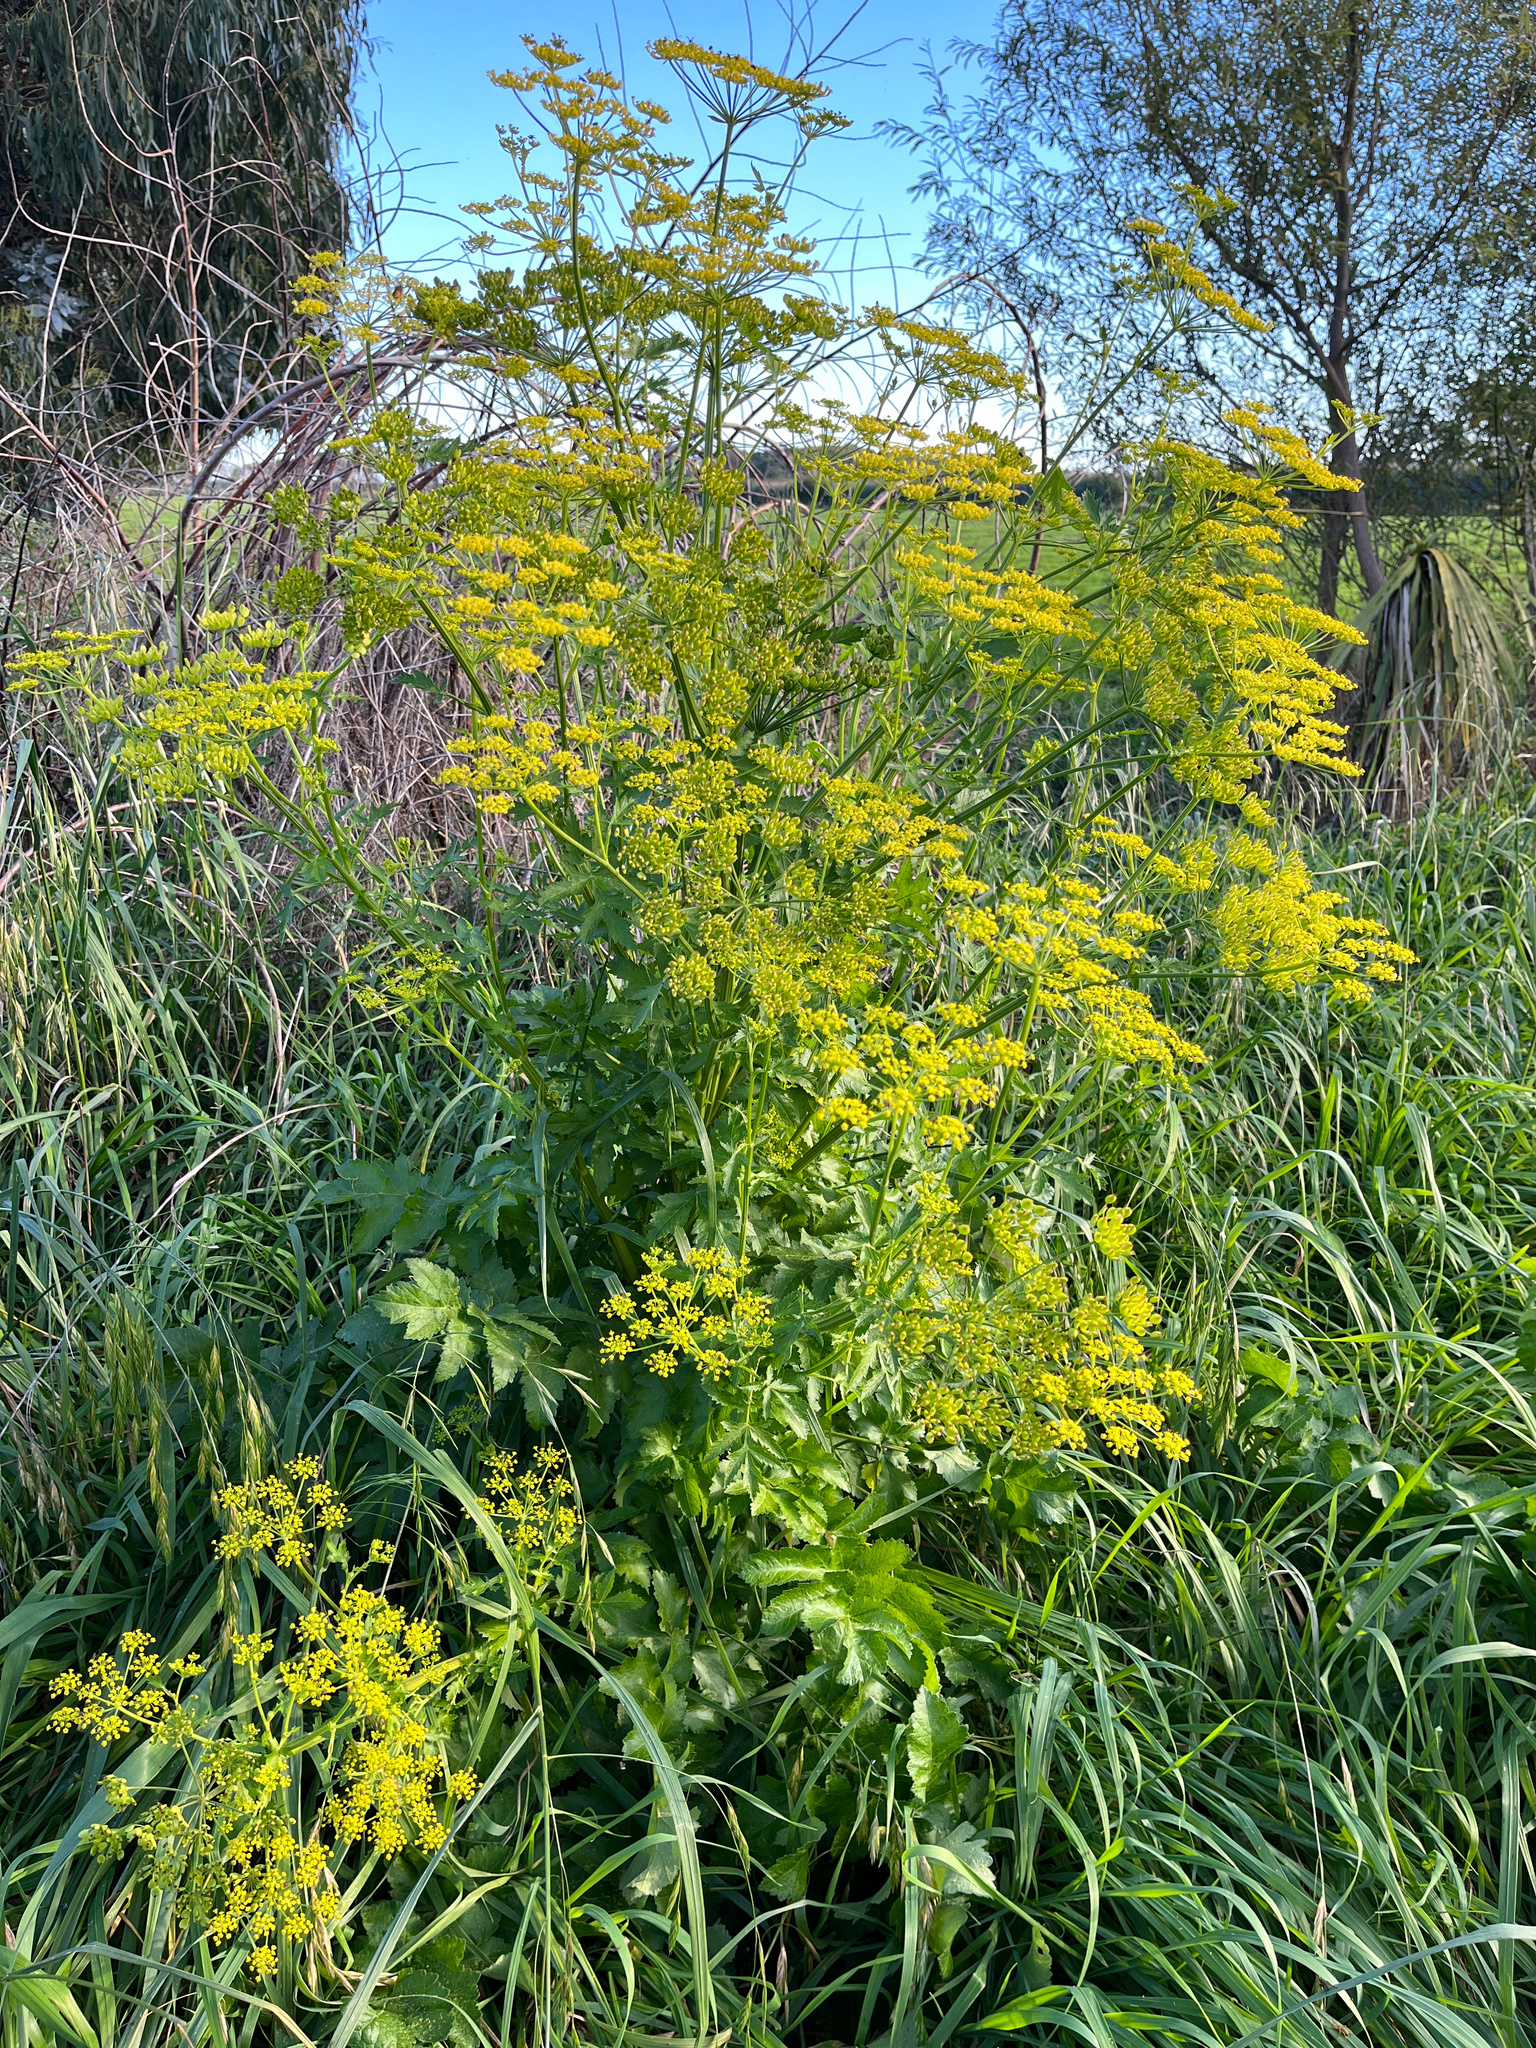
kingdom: Plantae
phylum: Tracheophyta
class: Magnoliopsida
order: Apiales
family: Apiaceae
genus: Pastinaca
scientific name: Pastinaca sativa
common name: Wild parsnip
